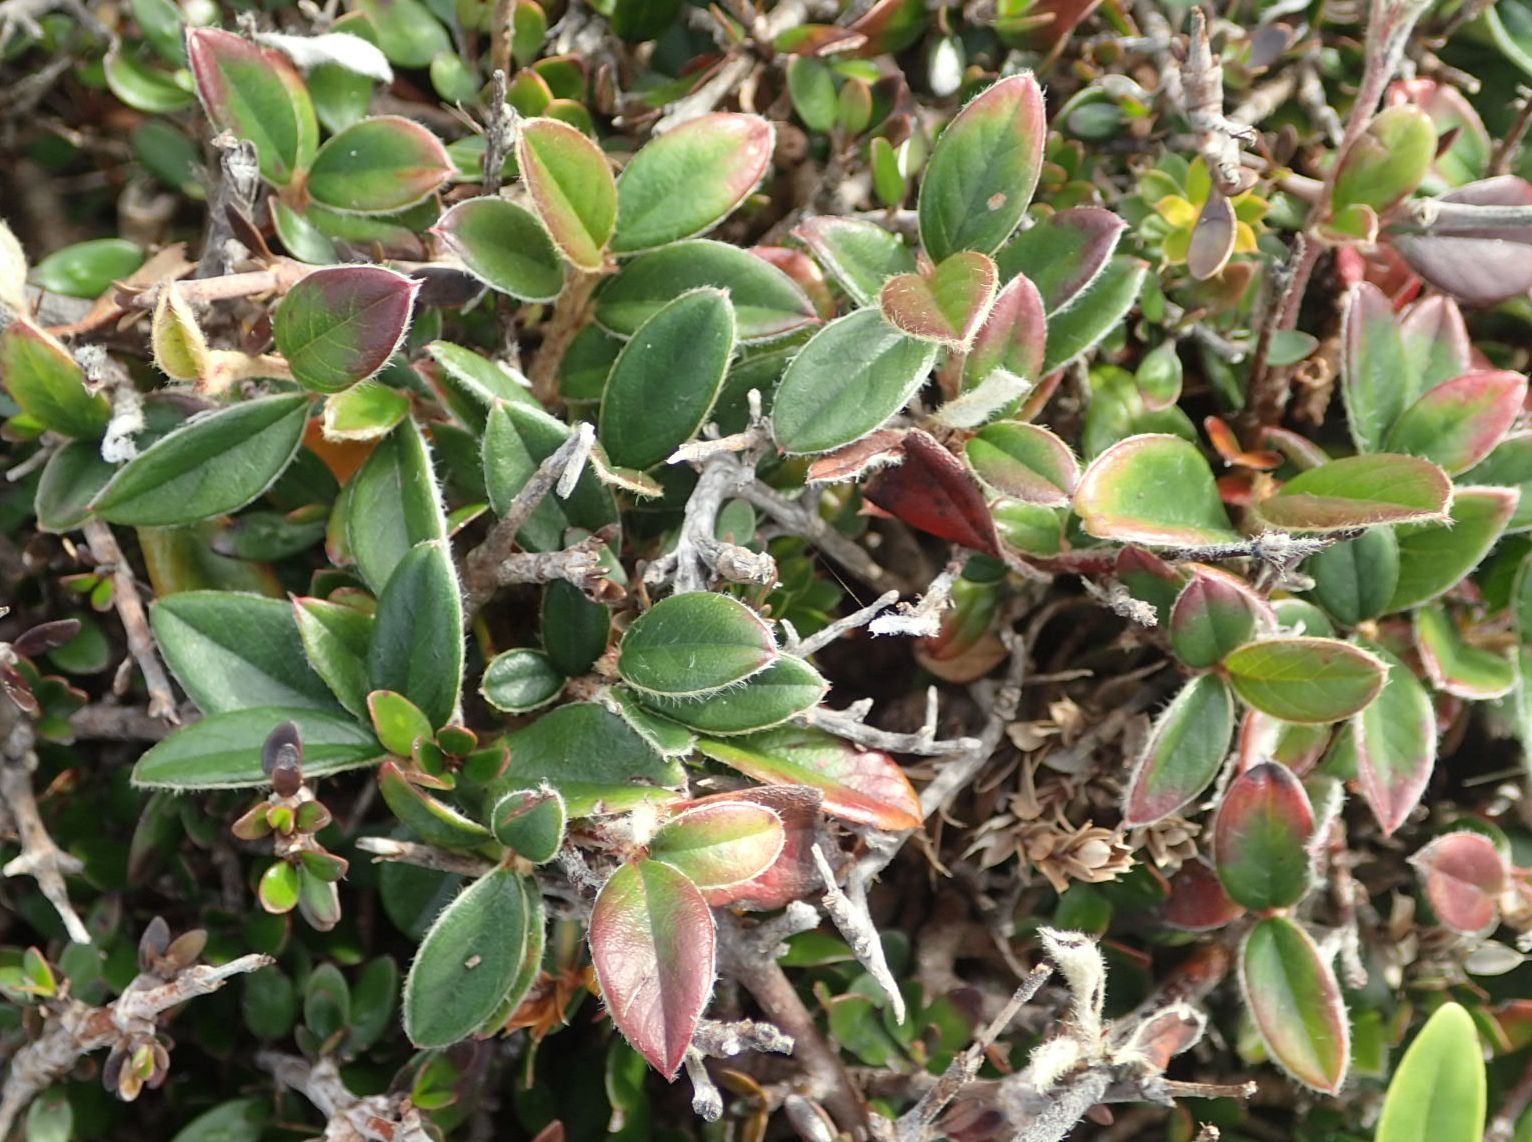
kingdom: Plantae
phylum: Tracheophyta
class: Magnoliopsida
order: Rosales
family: Rosaceae
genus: Cotoneaster
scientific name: Cotoneaster franchetii
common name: Franchet's cotoneaster
